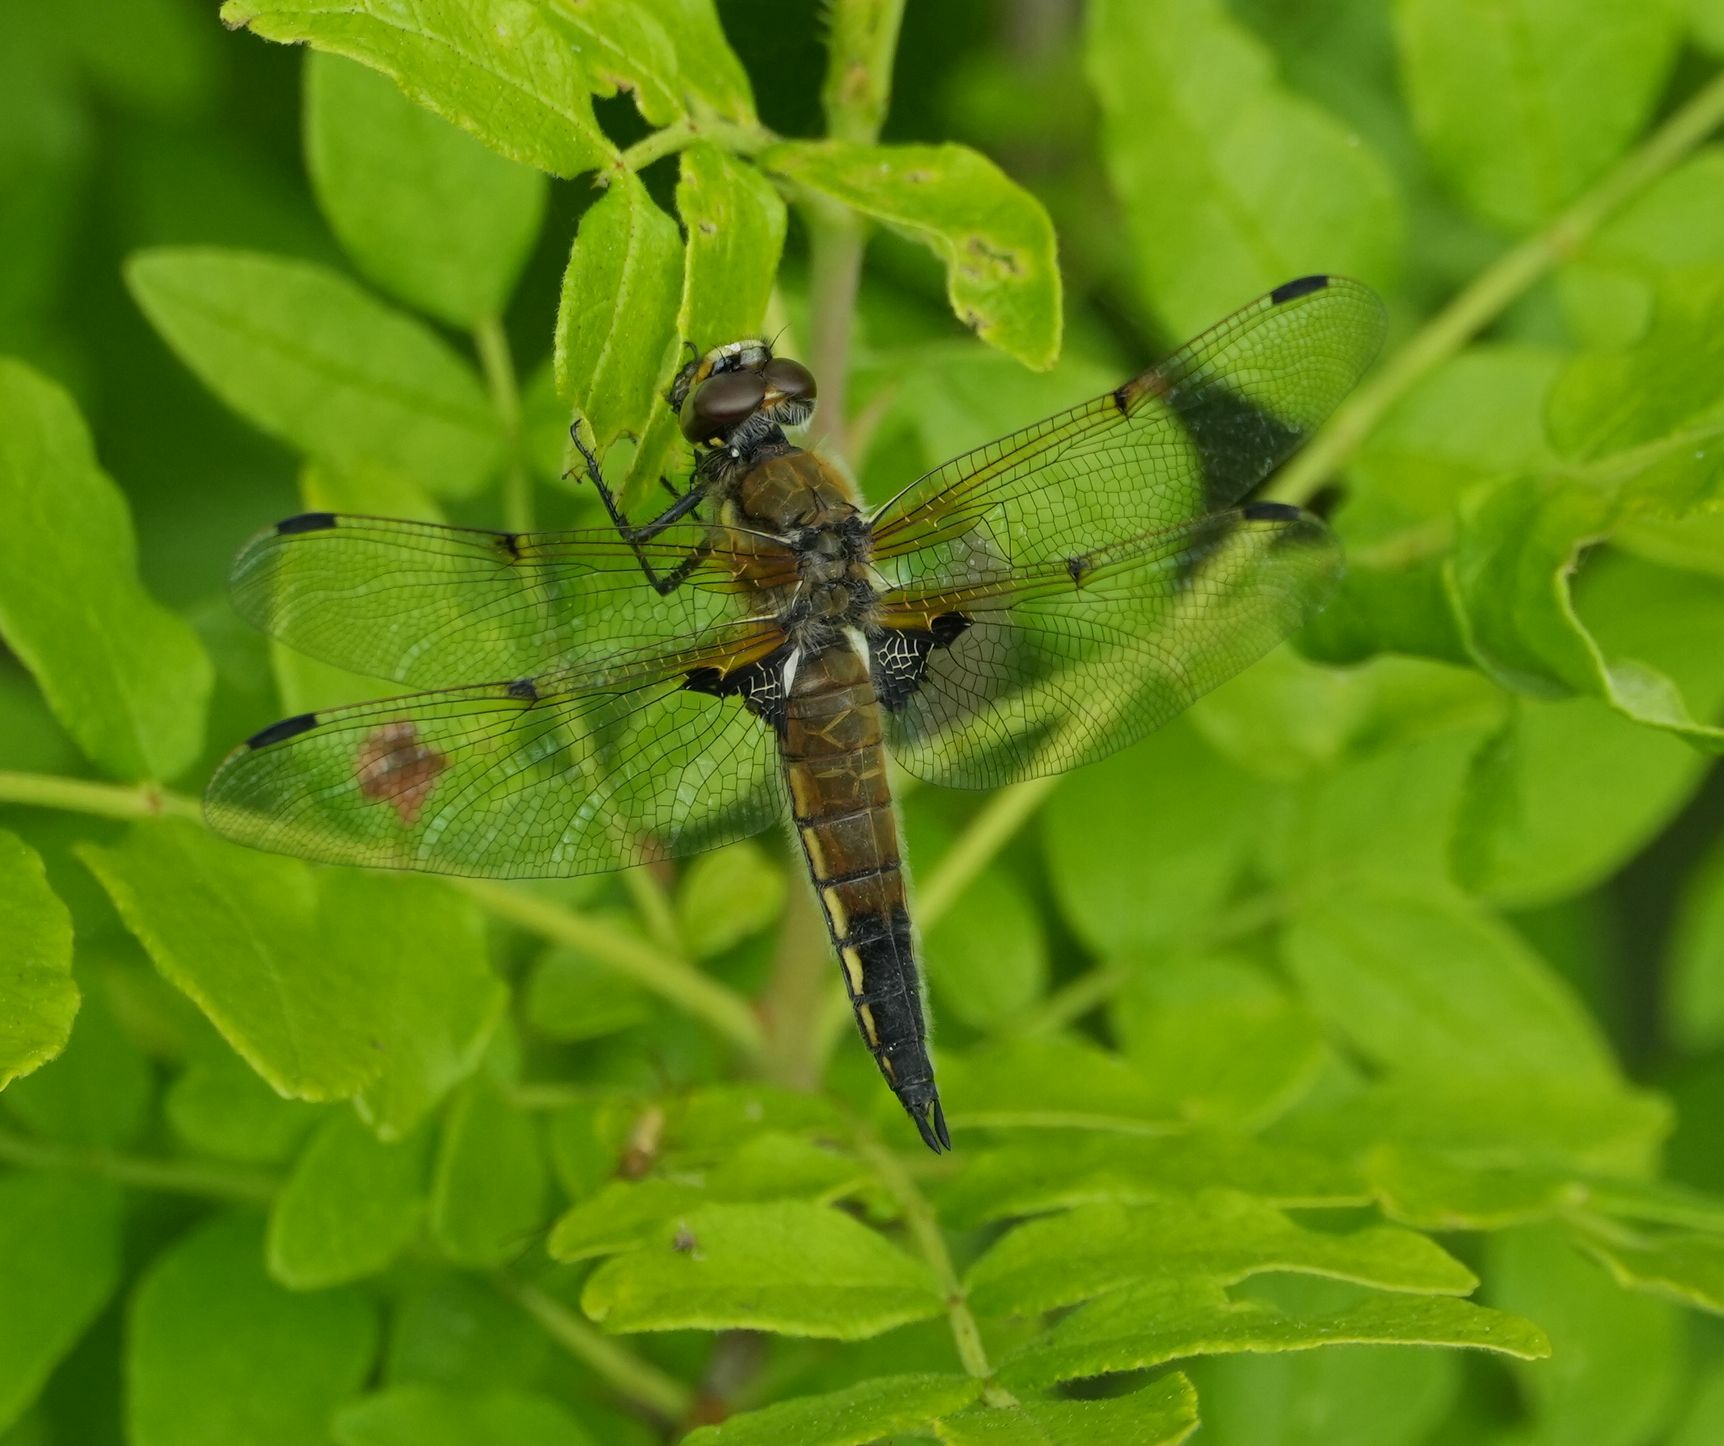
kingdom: Animalia
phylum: Arthropoda
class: Insecta
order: Odonata
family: Libellulidae
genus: Libellula
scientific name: Libellula quadrimaculata
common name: Four-spotted chaser
